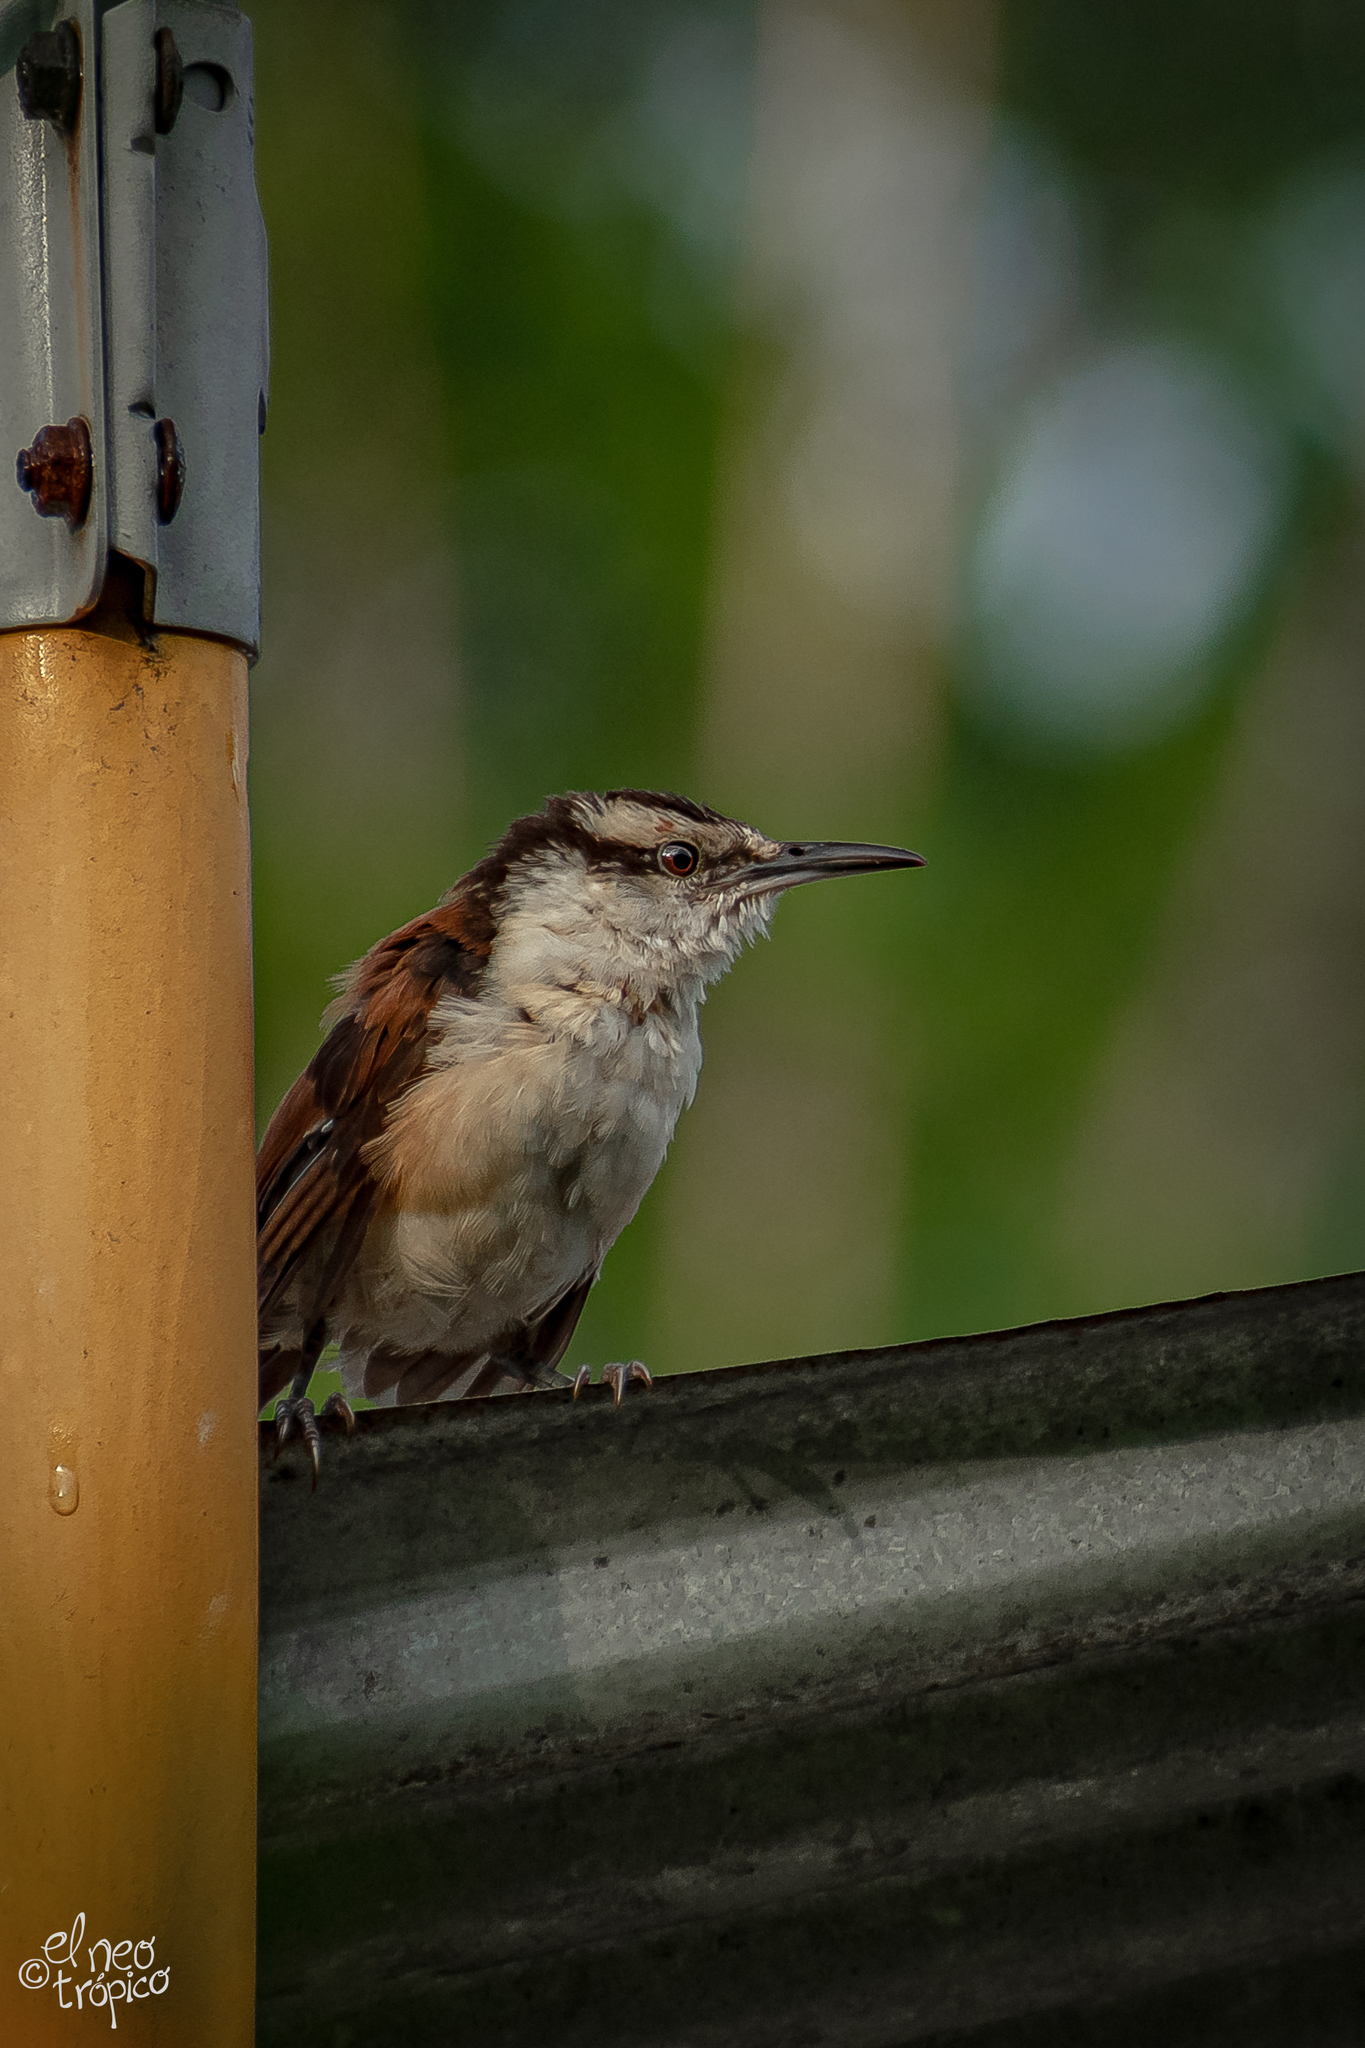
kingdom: Animalia
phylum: Chordata
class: Aves
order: Passeriformes
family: Troglodytidae
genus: Campylorhynchus
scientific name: Campylorhynchus chiapensis
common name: Giant wren
